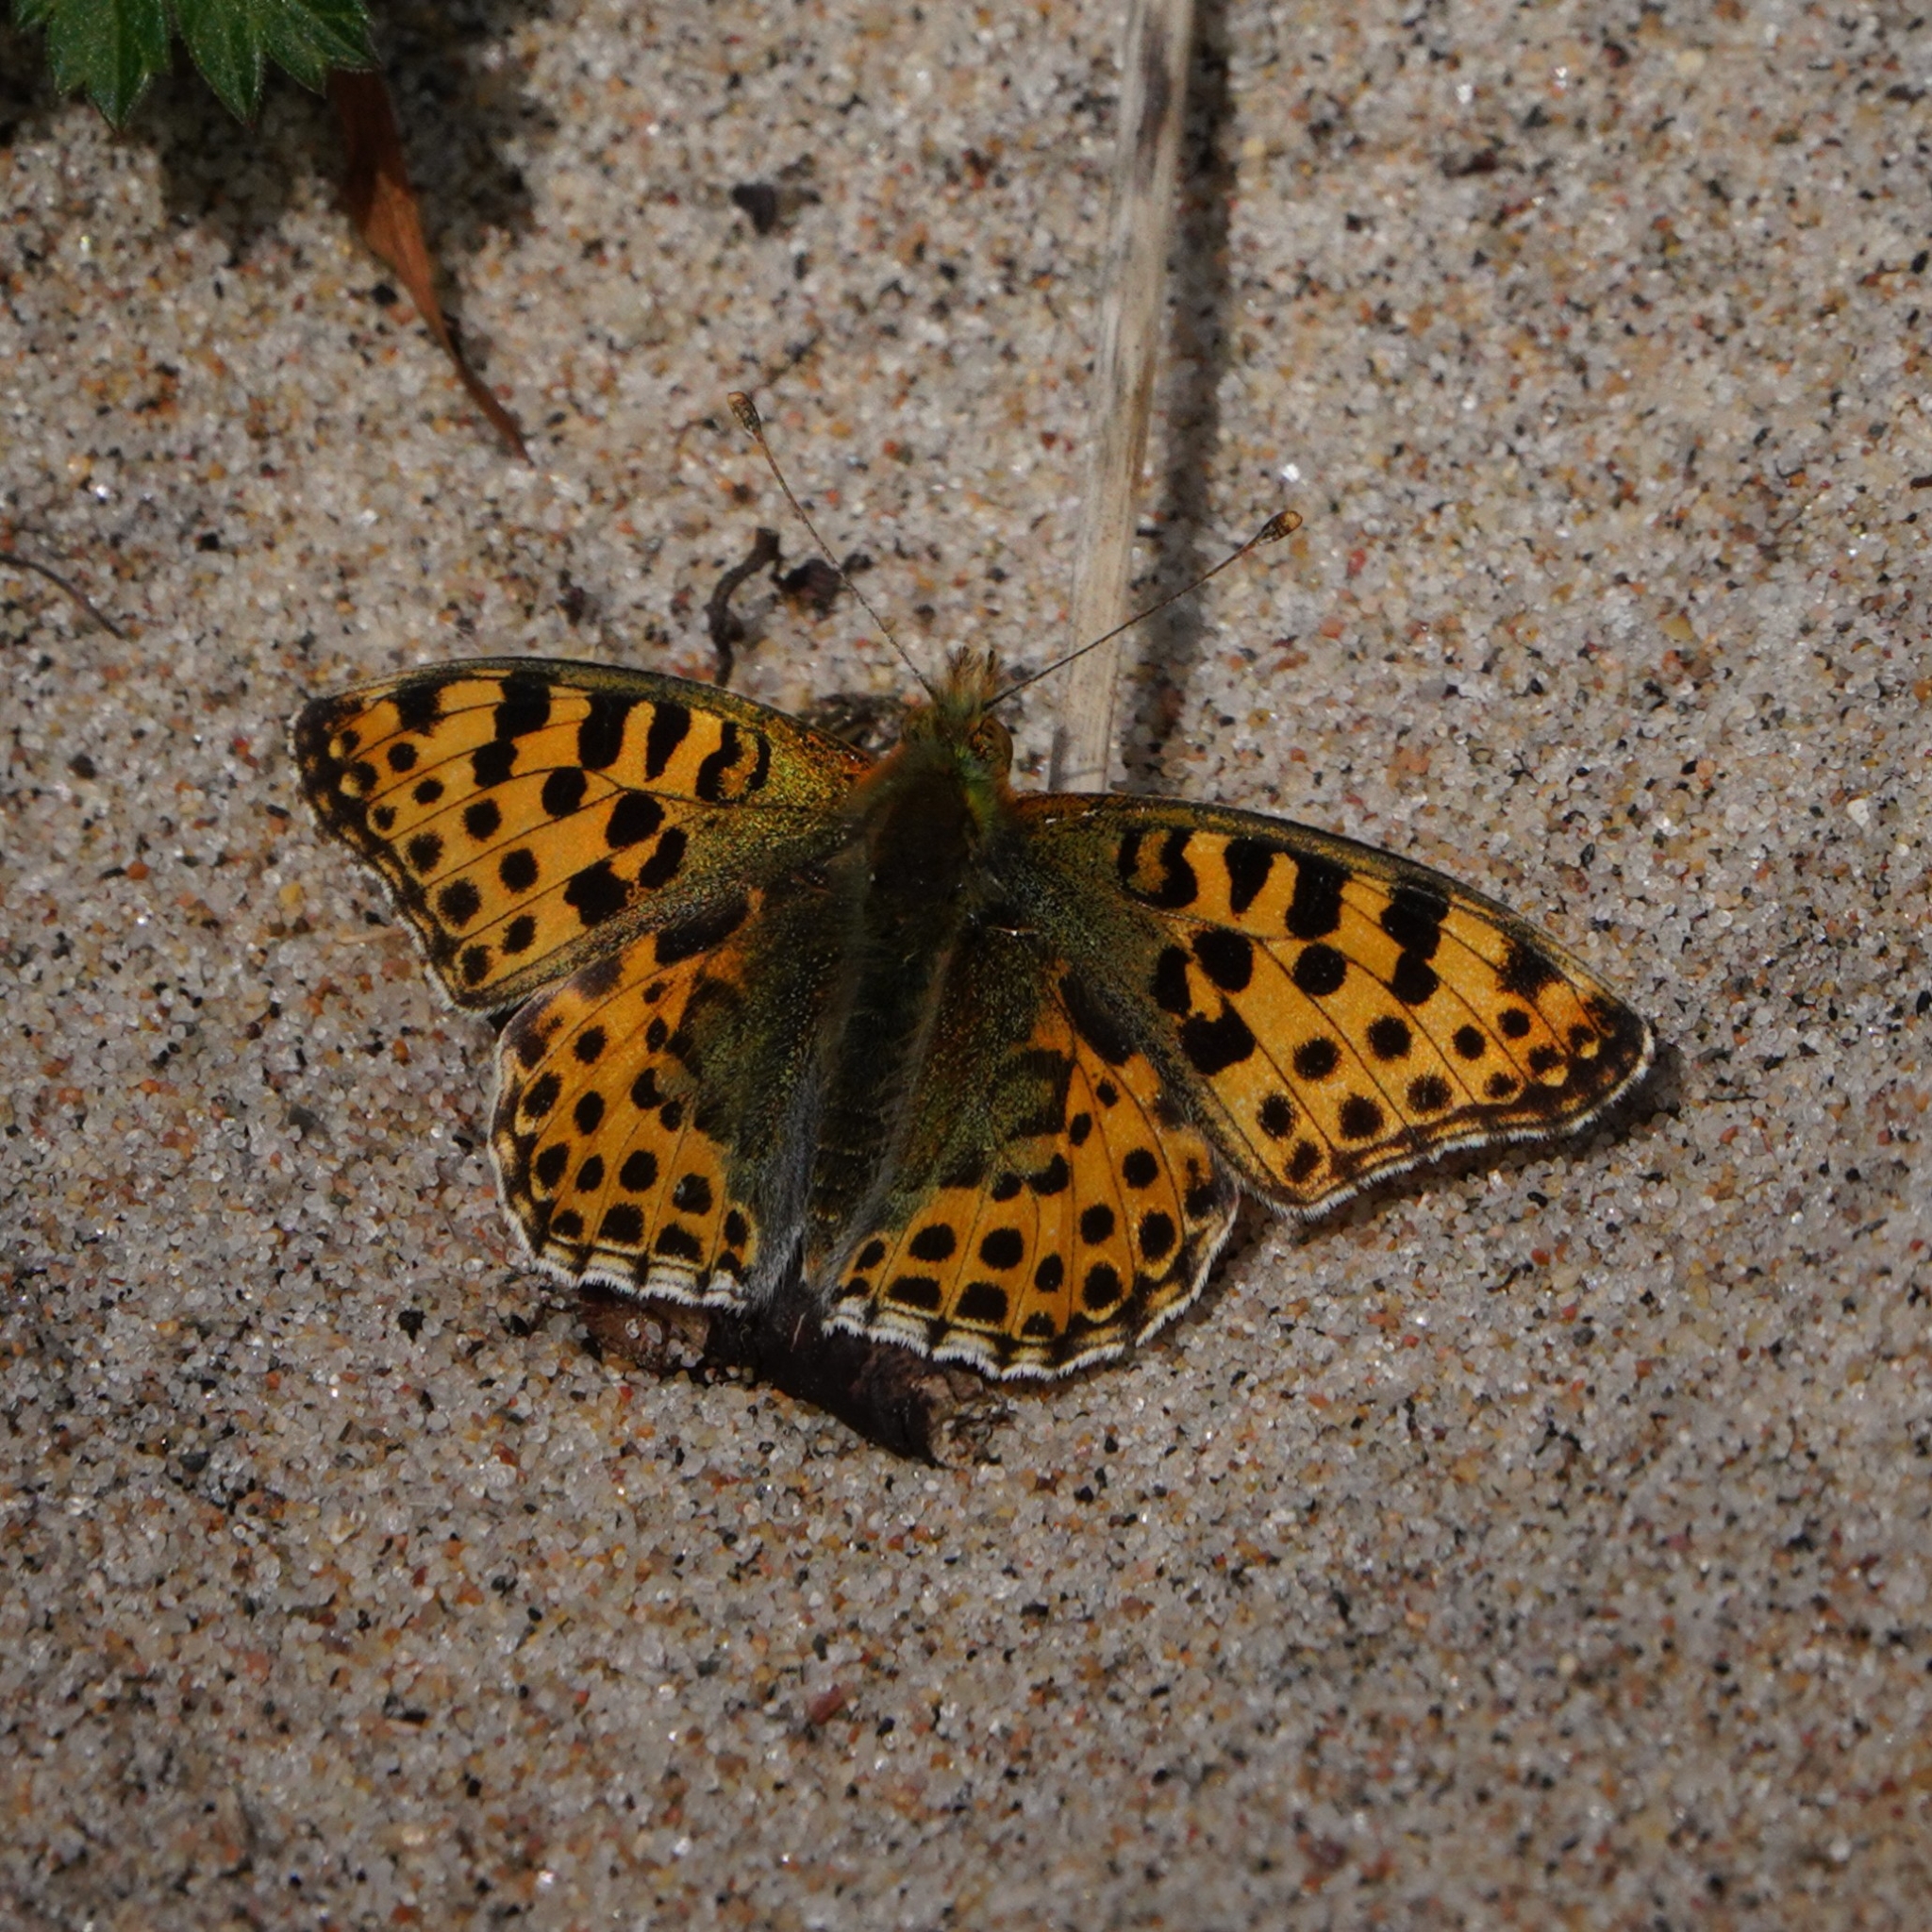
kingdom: Animalia
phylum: Arthropoda
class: Insecta
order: Lepidoptera
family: Nymphalidae
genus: Issoria
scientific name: Issoria lathonia
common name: Queen of spain fritillary
